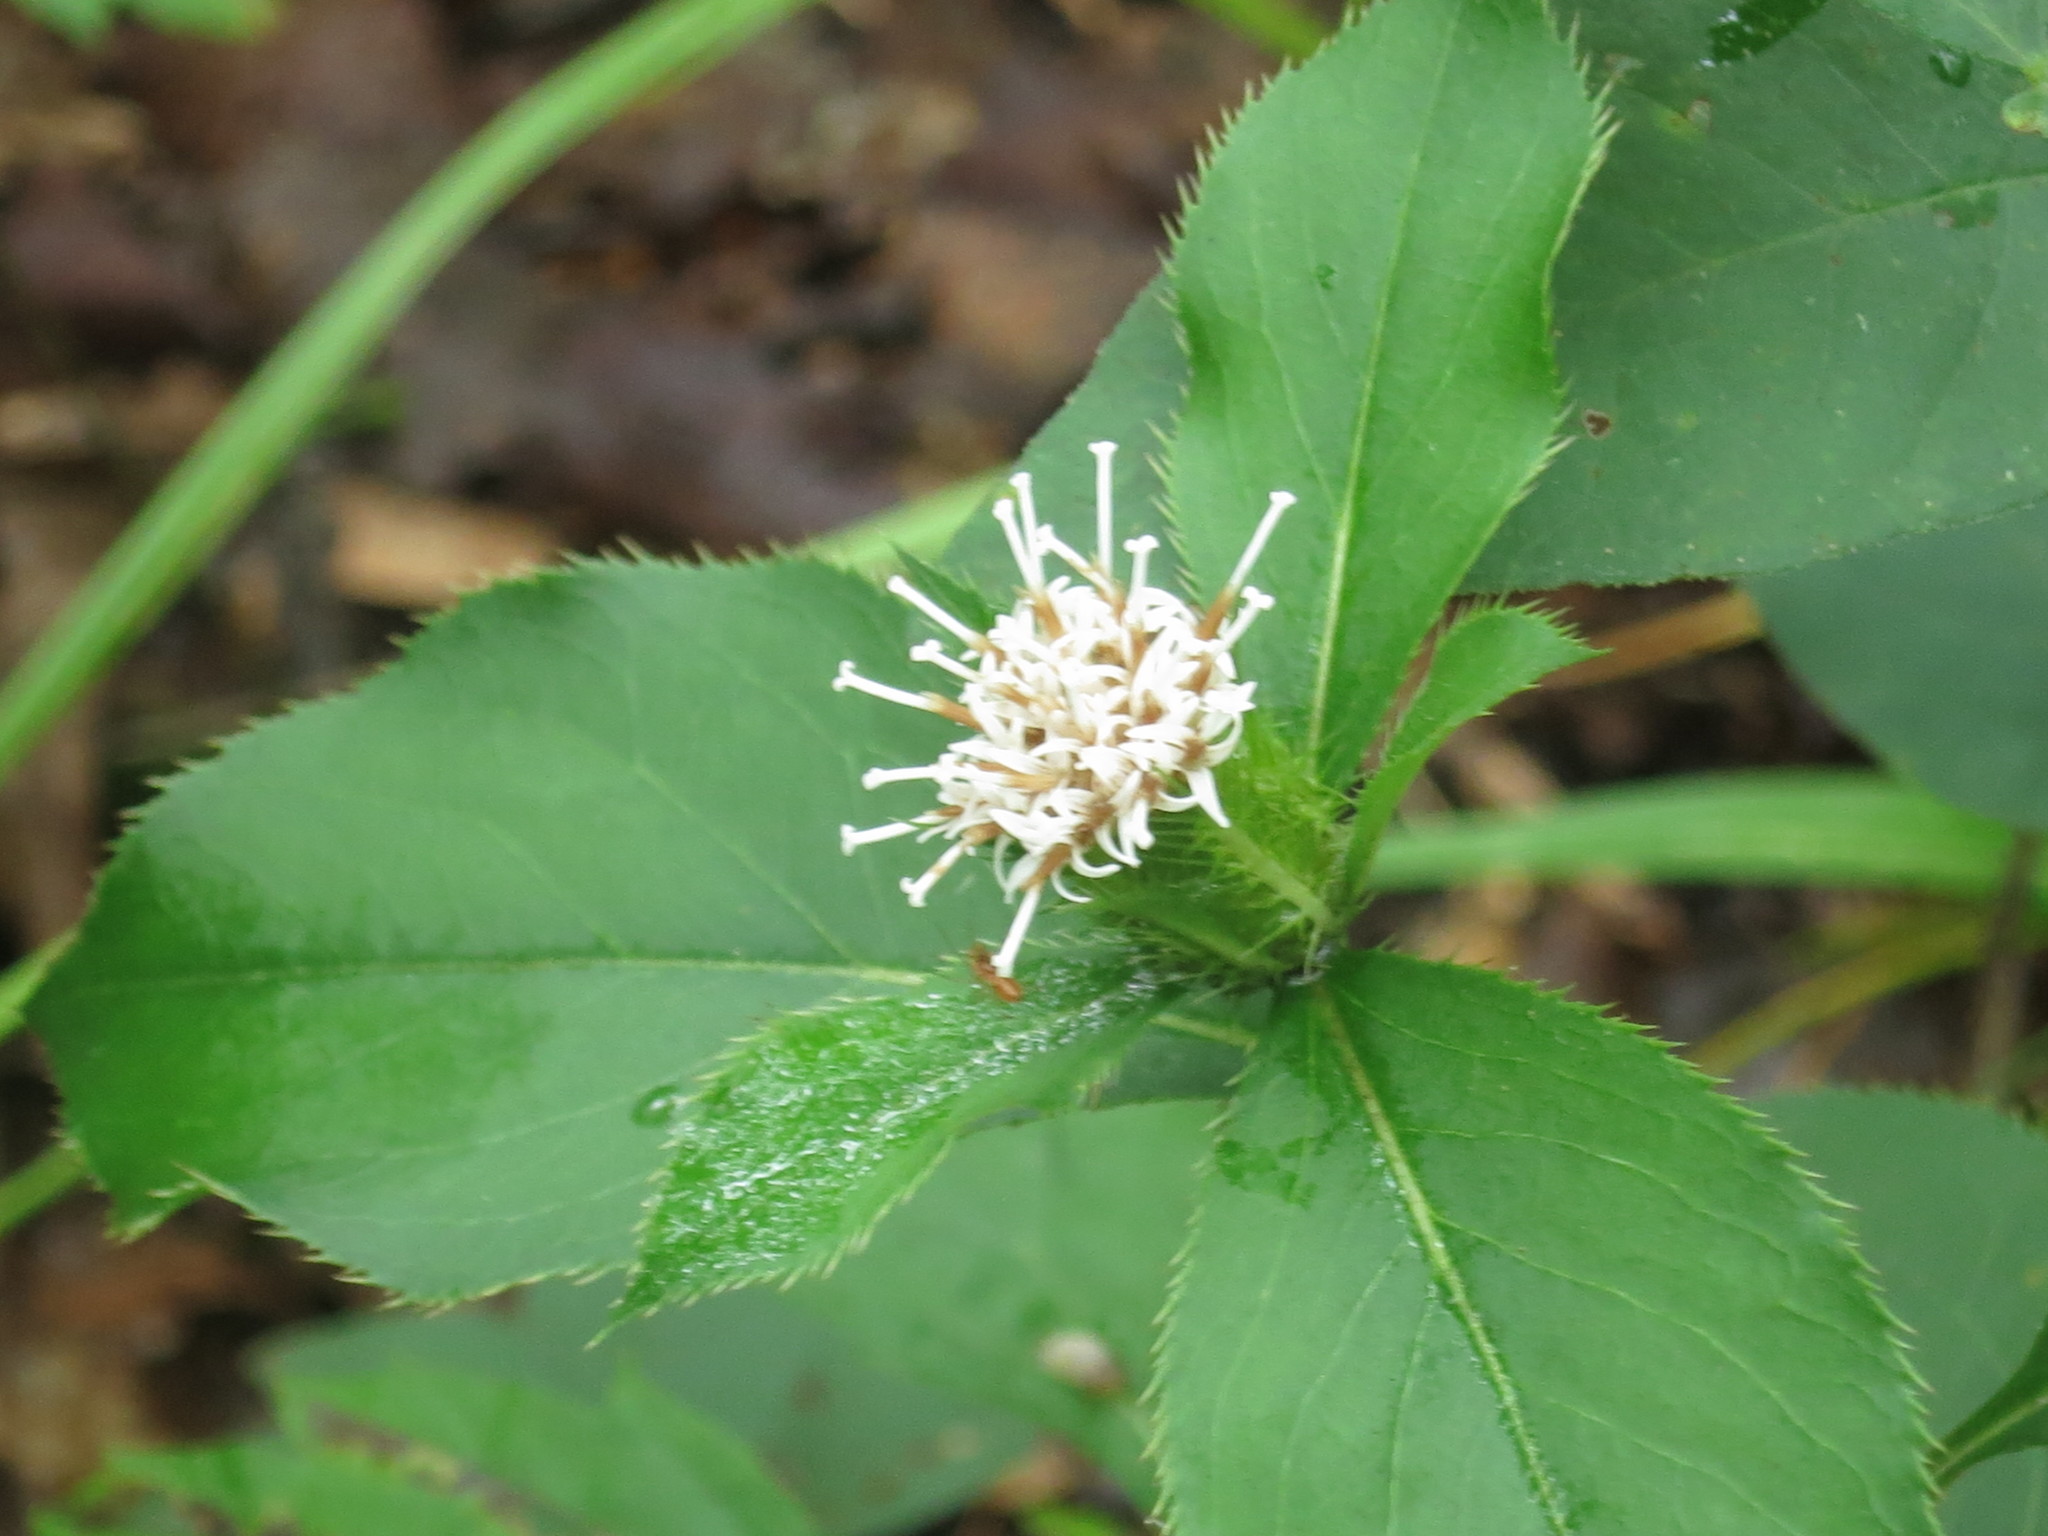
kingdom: Plantae
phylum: Tracheophyta
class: Magnoliopsida
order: Asterales
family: Asteraceae
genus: Atractylodes
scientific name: Atractylodes lancea
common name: Southern tsangshu
